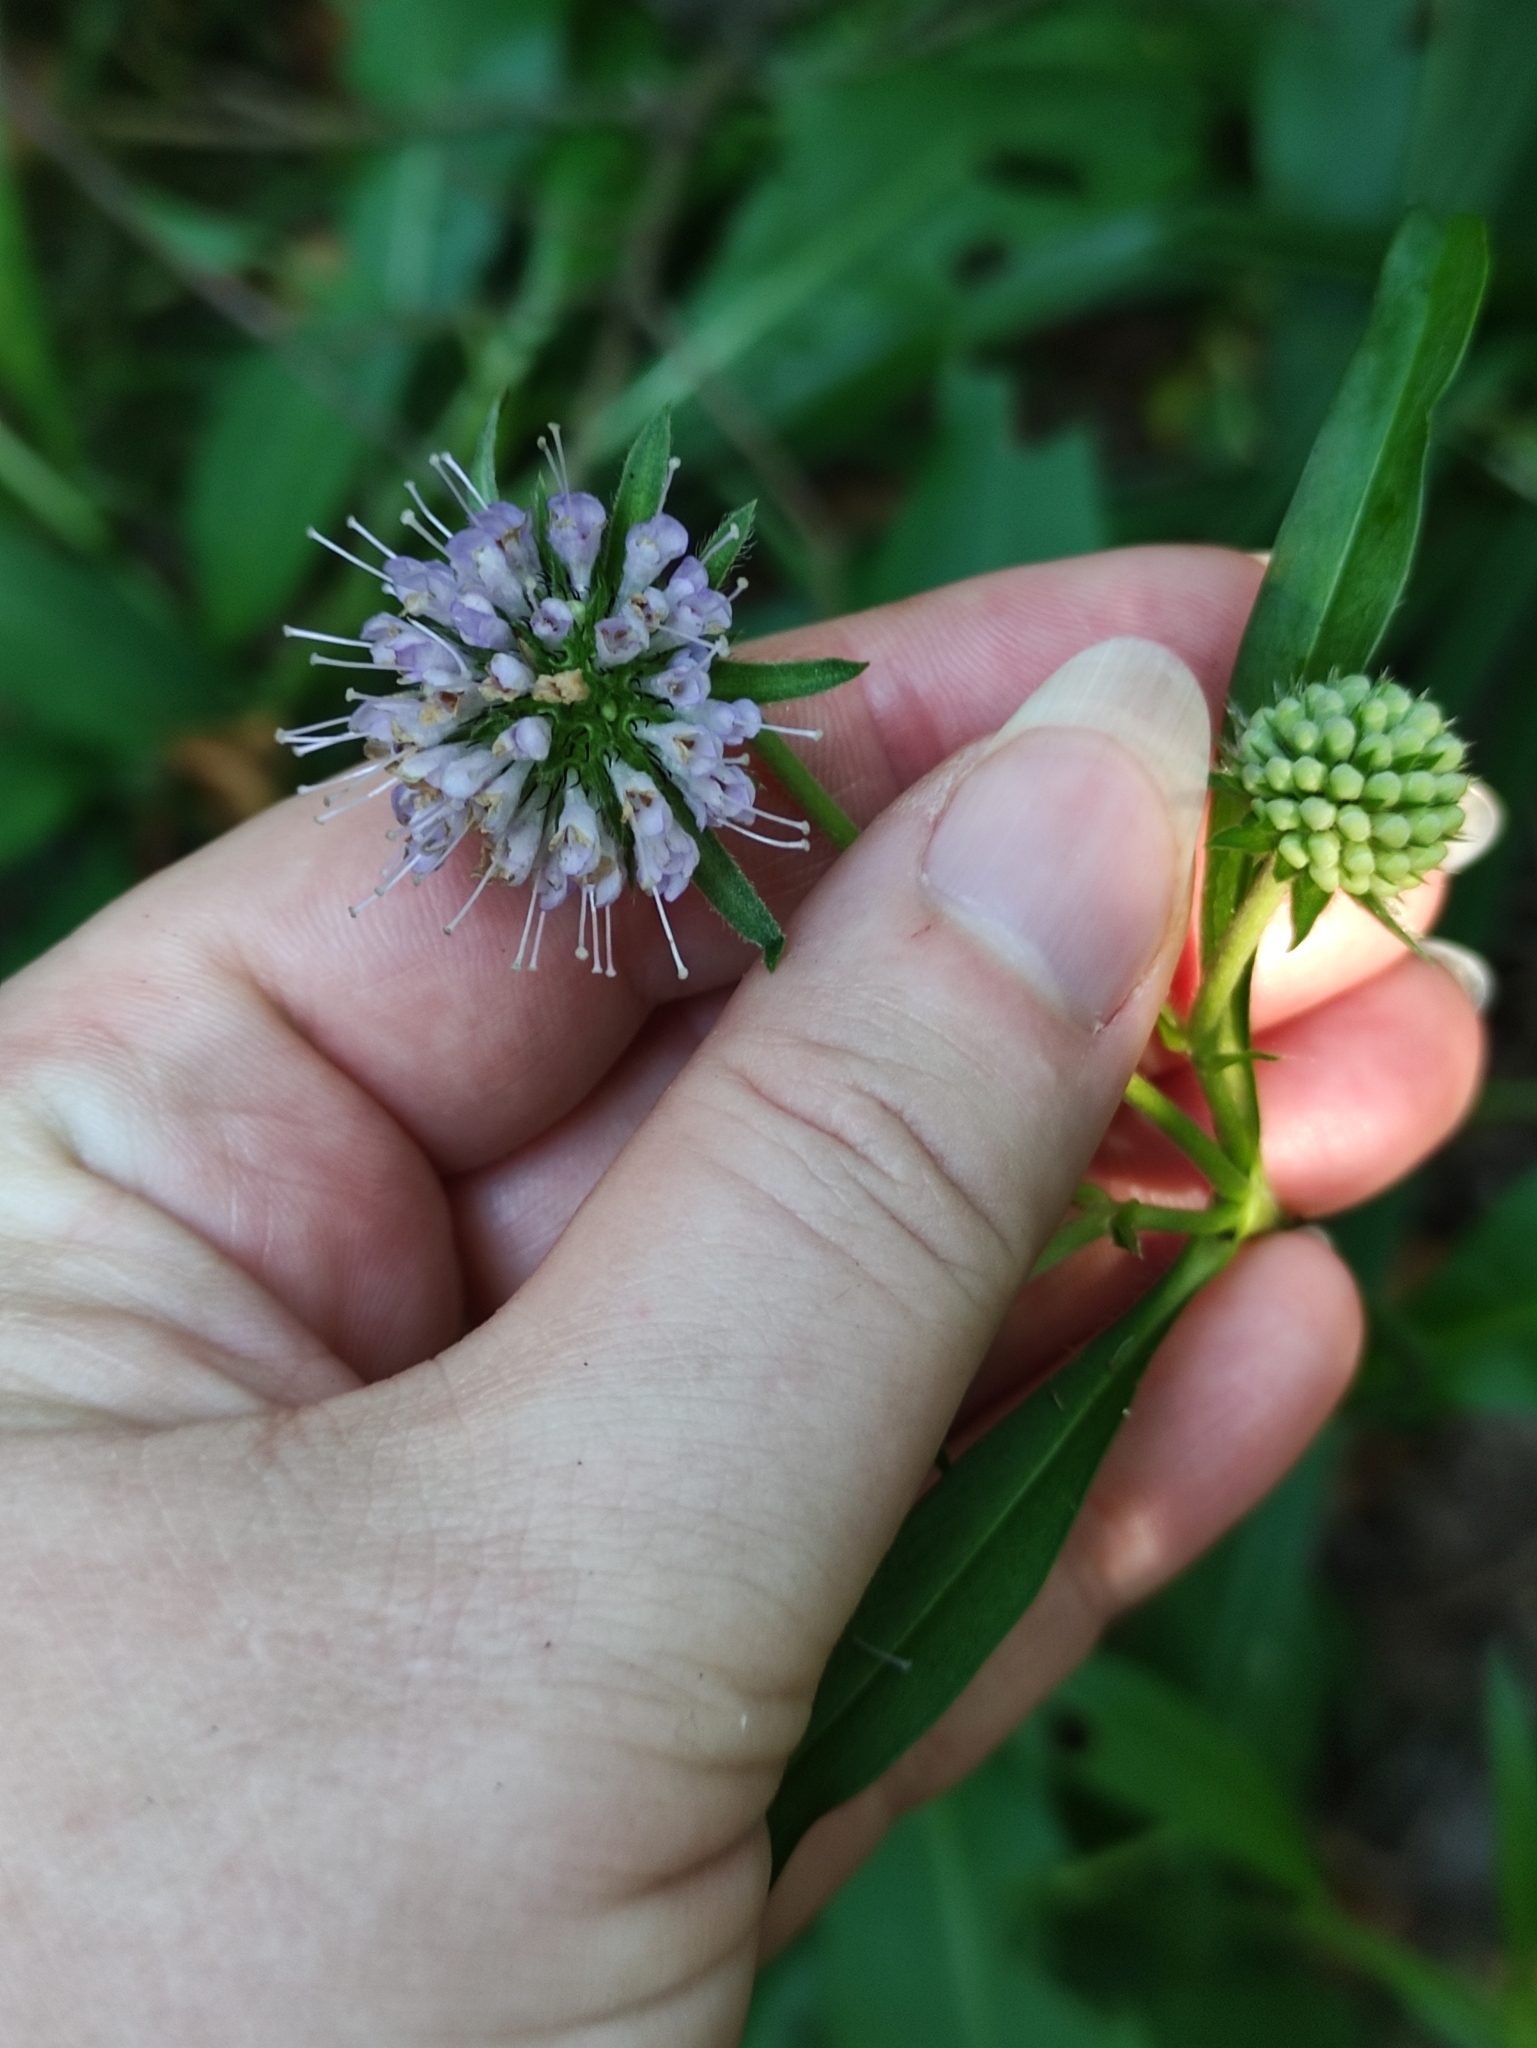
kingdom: Plantae
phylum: Tracheophyta
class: Magnoliopsida
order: Dipsacales
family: Caprifoliaceae
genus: Succisa
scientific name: Succisa pratensis
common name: Devil's-bit
